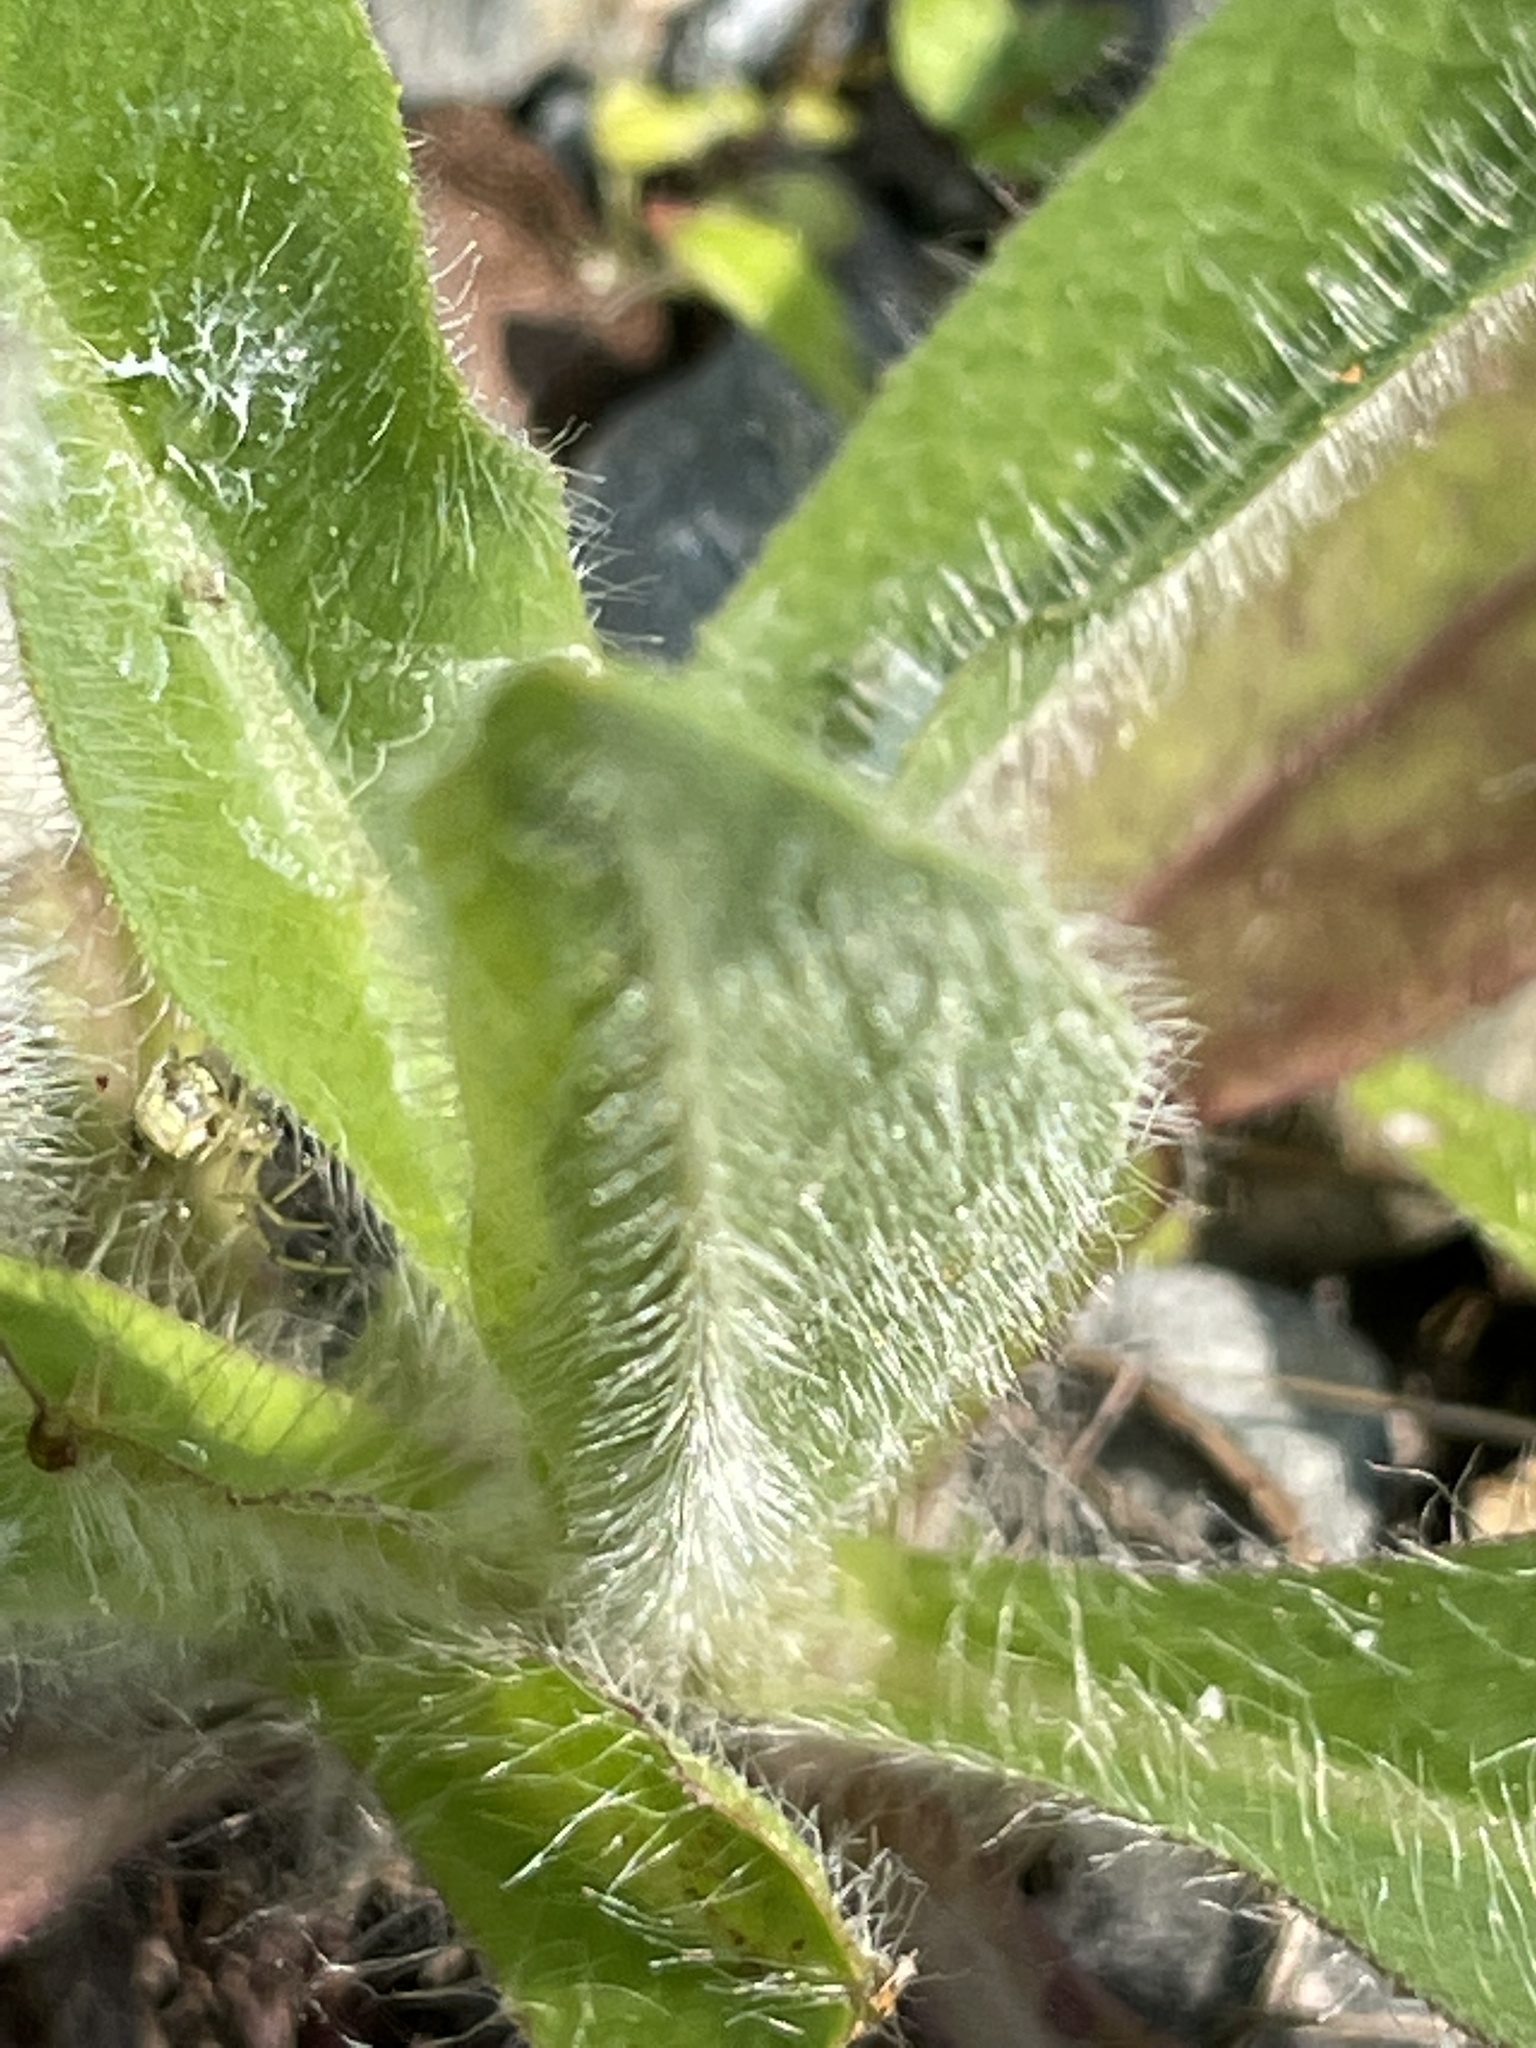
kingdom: Plantae
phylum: Tracheophyta
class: Magnoliopsida
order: Asterales
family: Asteraceae
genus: Pilosella
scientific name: Pilosella caespitosa
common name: Yellow fox-and-cubs
